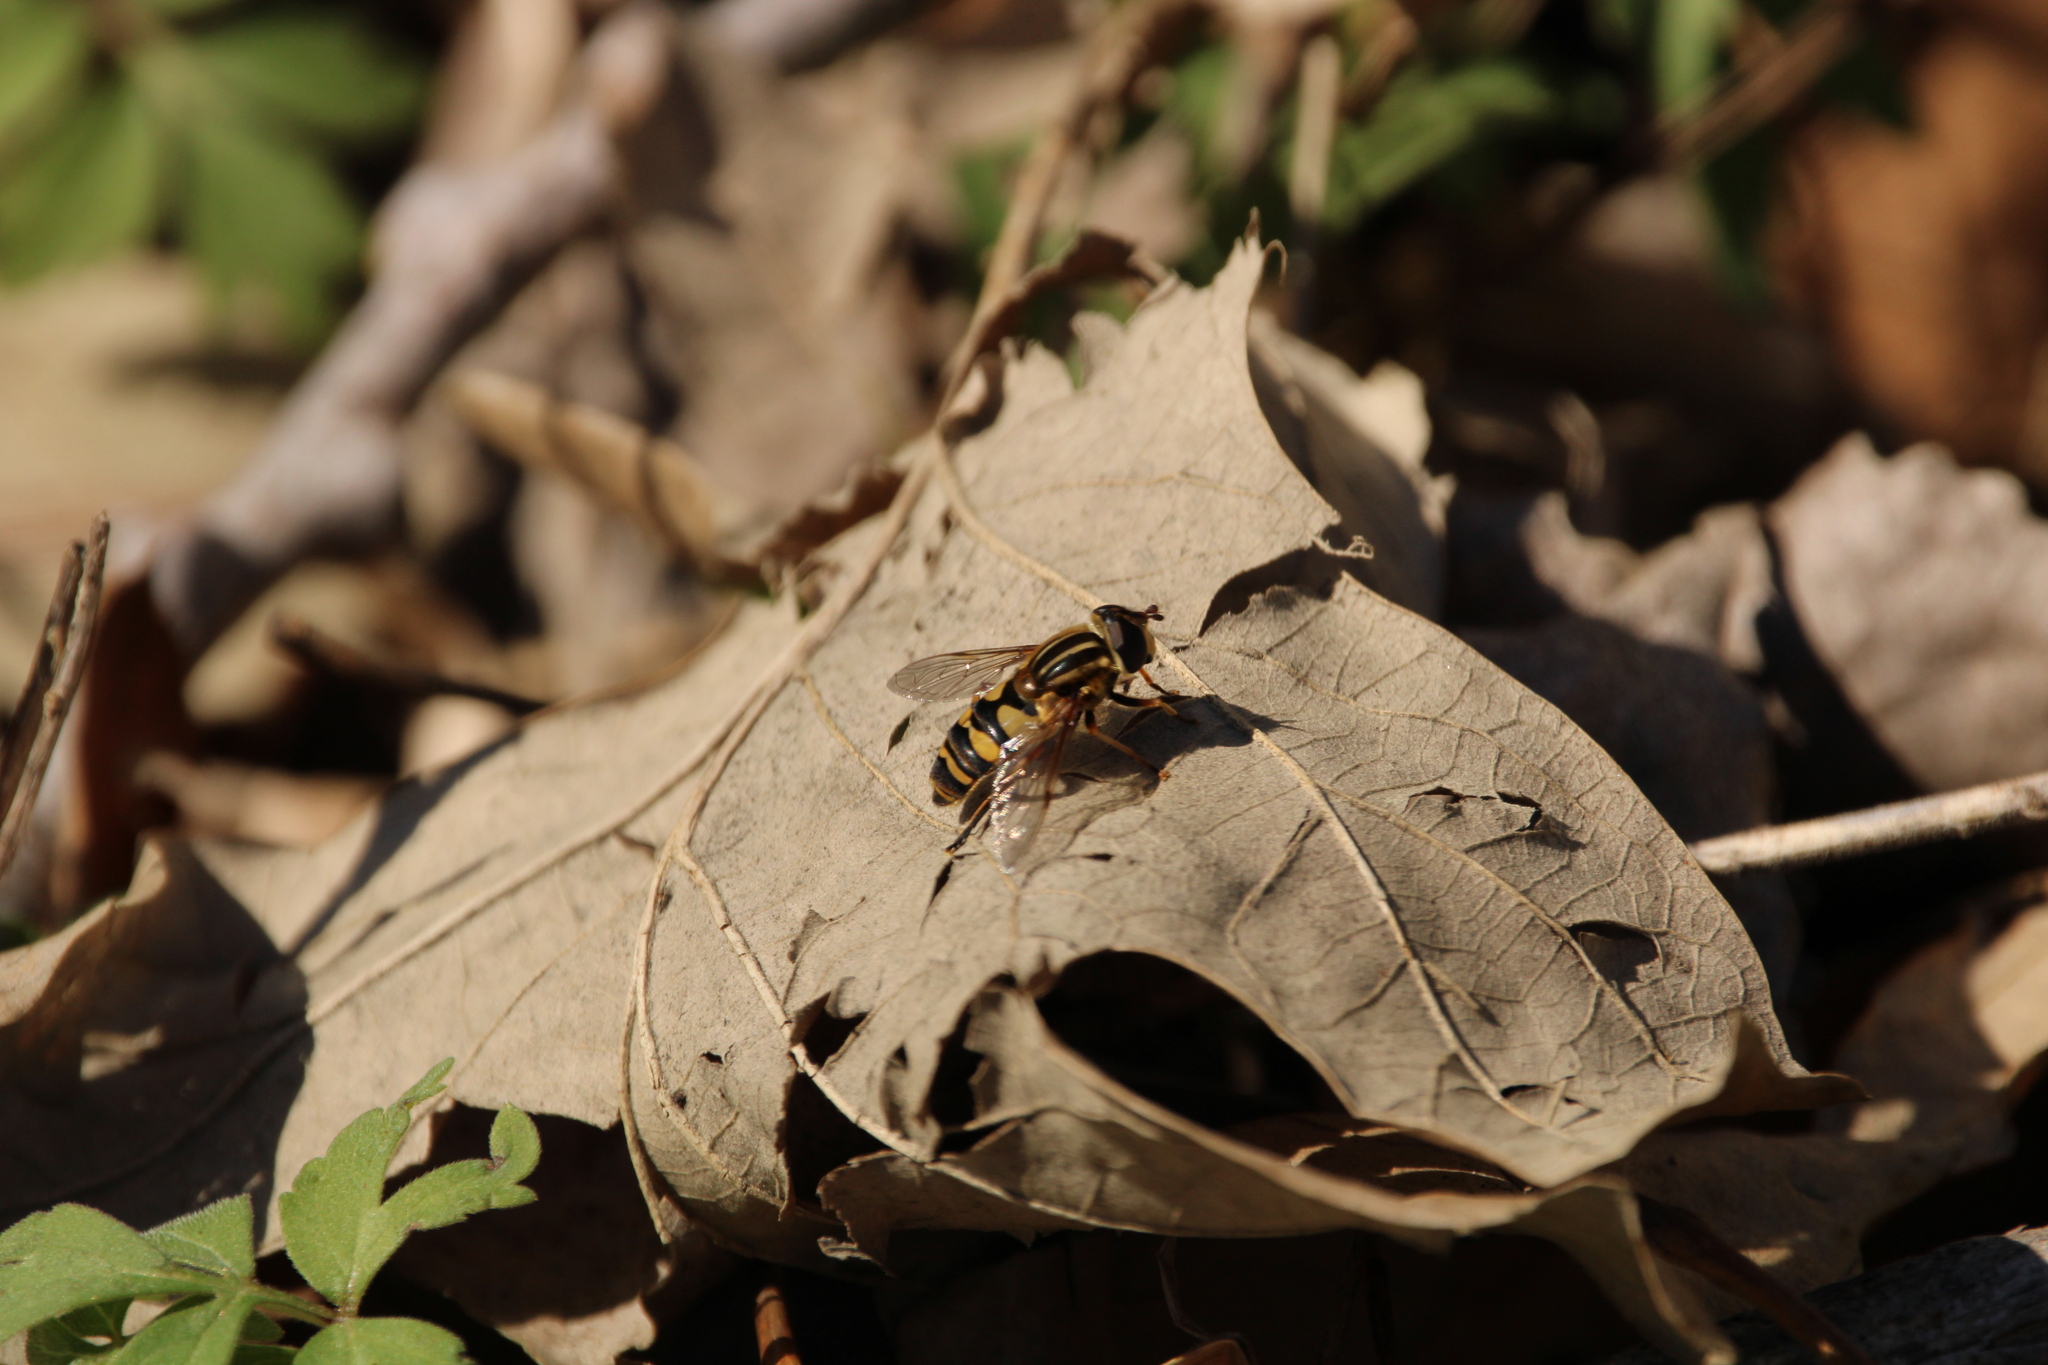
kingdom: Animalia
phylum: Arthropoda
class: Insecta
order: Diptera
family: Syrphidae
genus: Helophilus
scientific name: Helophilus fasciatus
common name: Narrow-headed marsh fly
